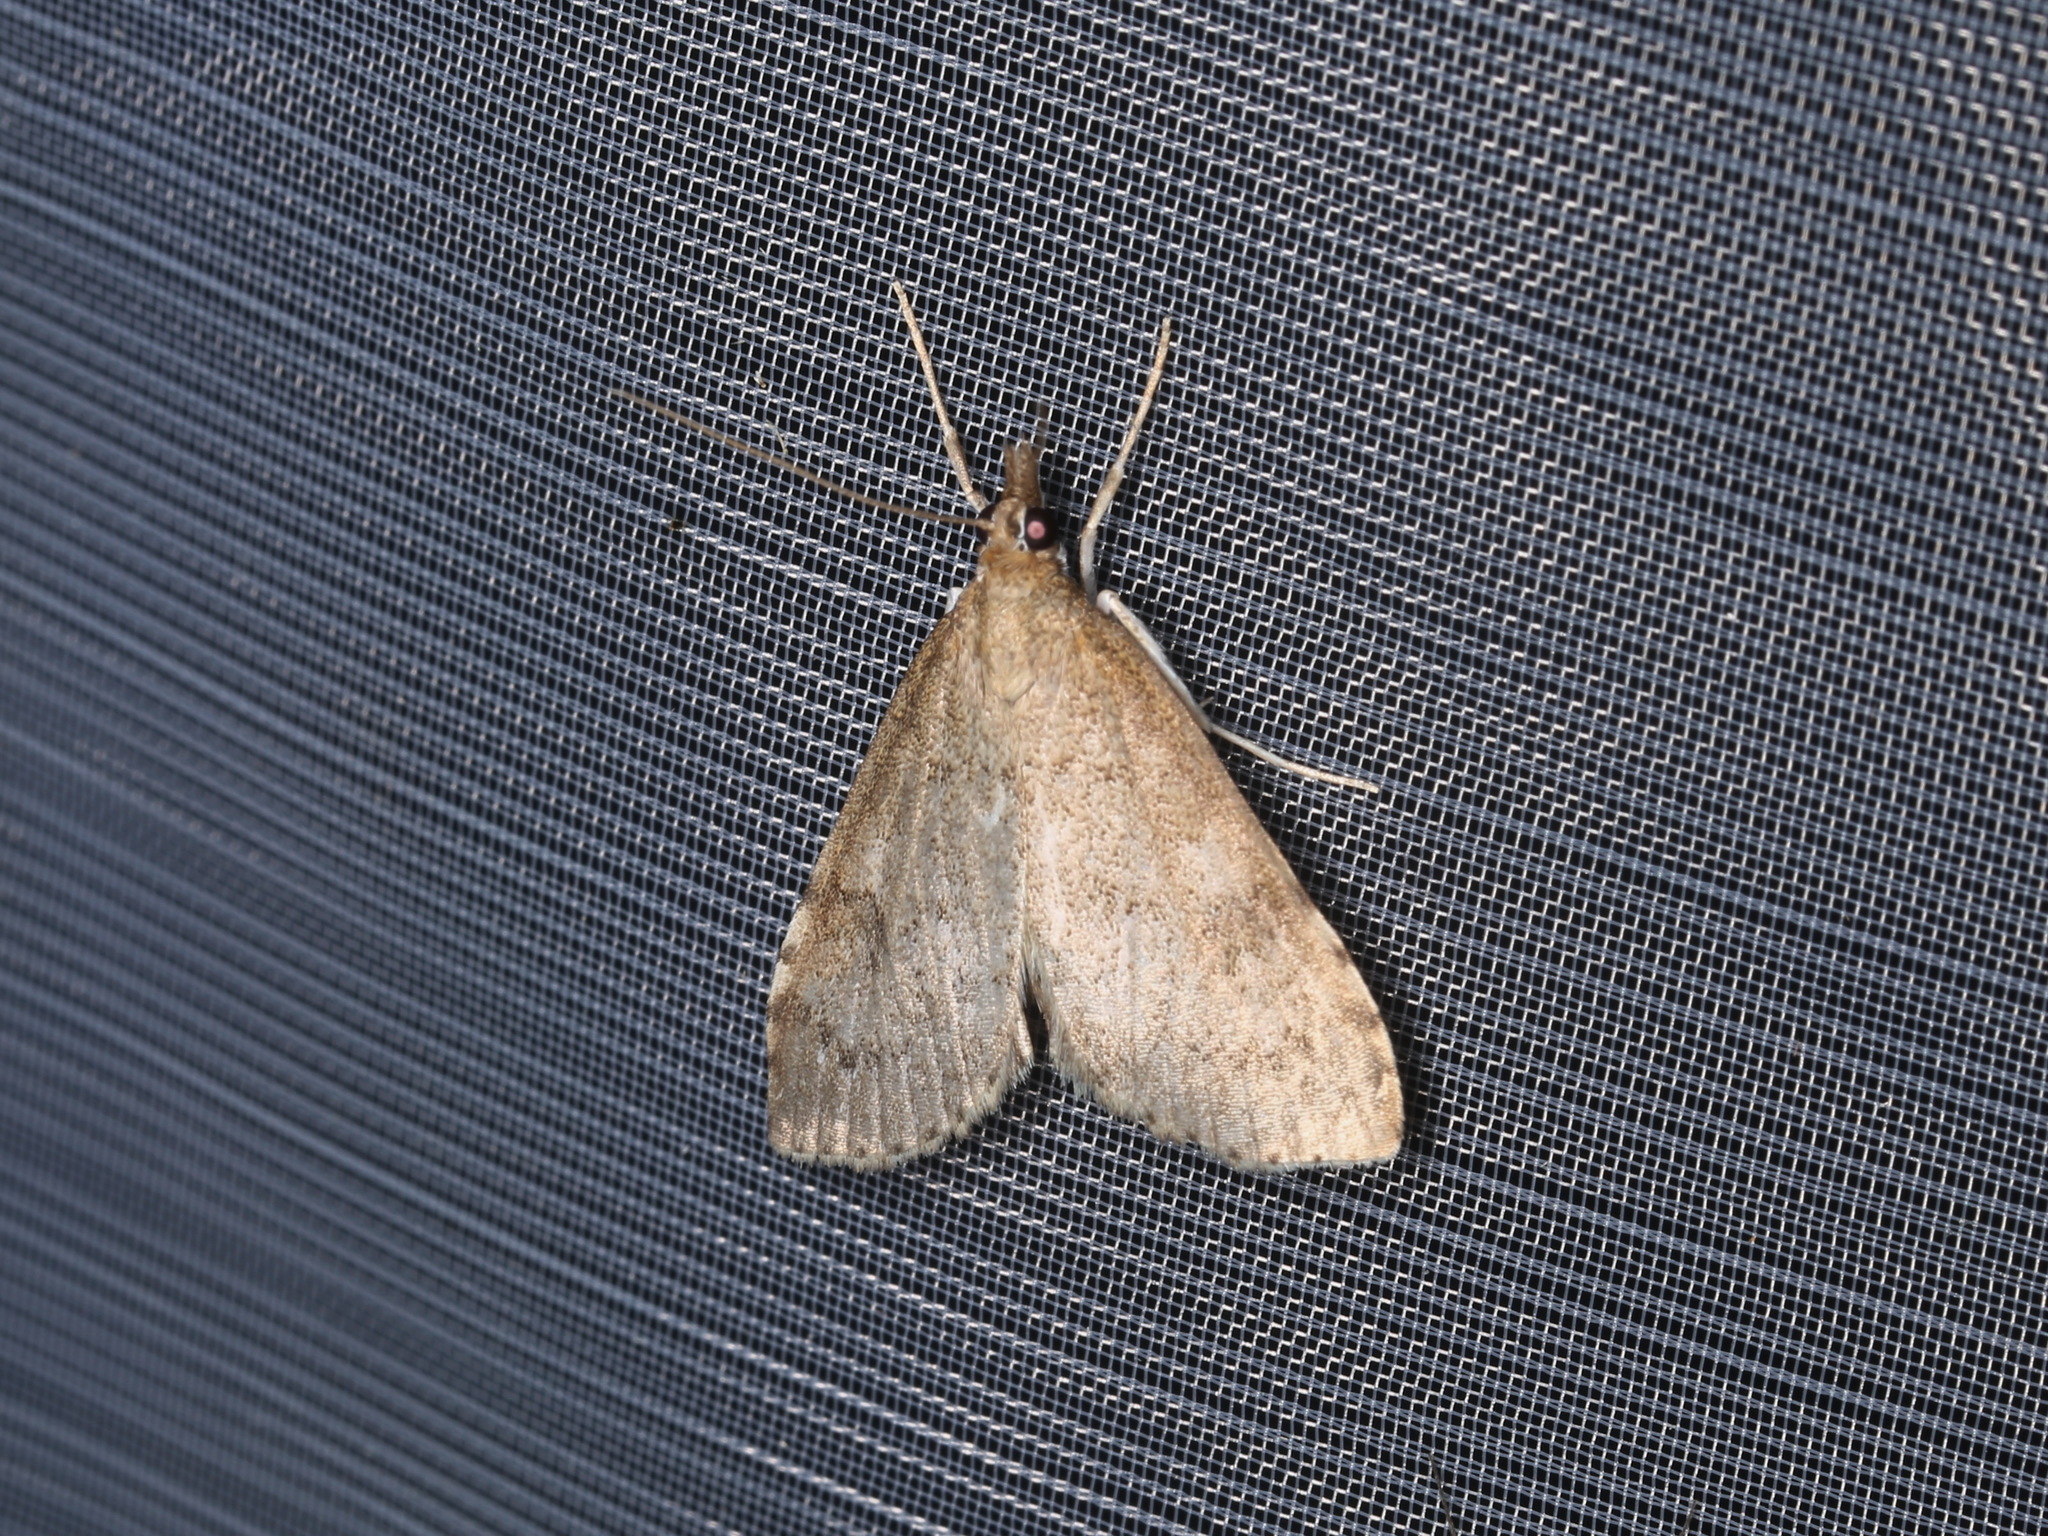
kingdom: Animalia
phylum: Arthropoda
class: Insecta
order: Lepidoptera
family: Crambidae
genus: Udea
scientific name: Udea prunalis
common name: Dusky pearl
